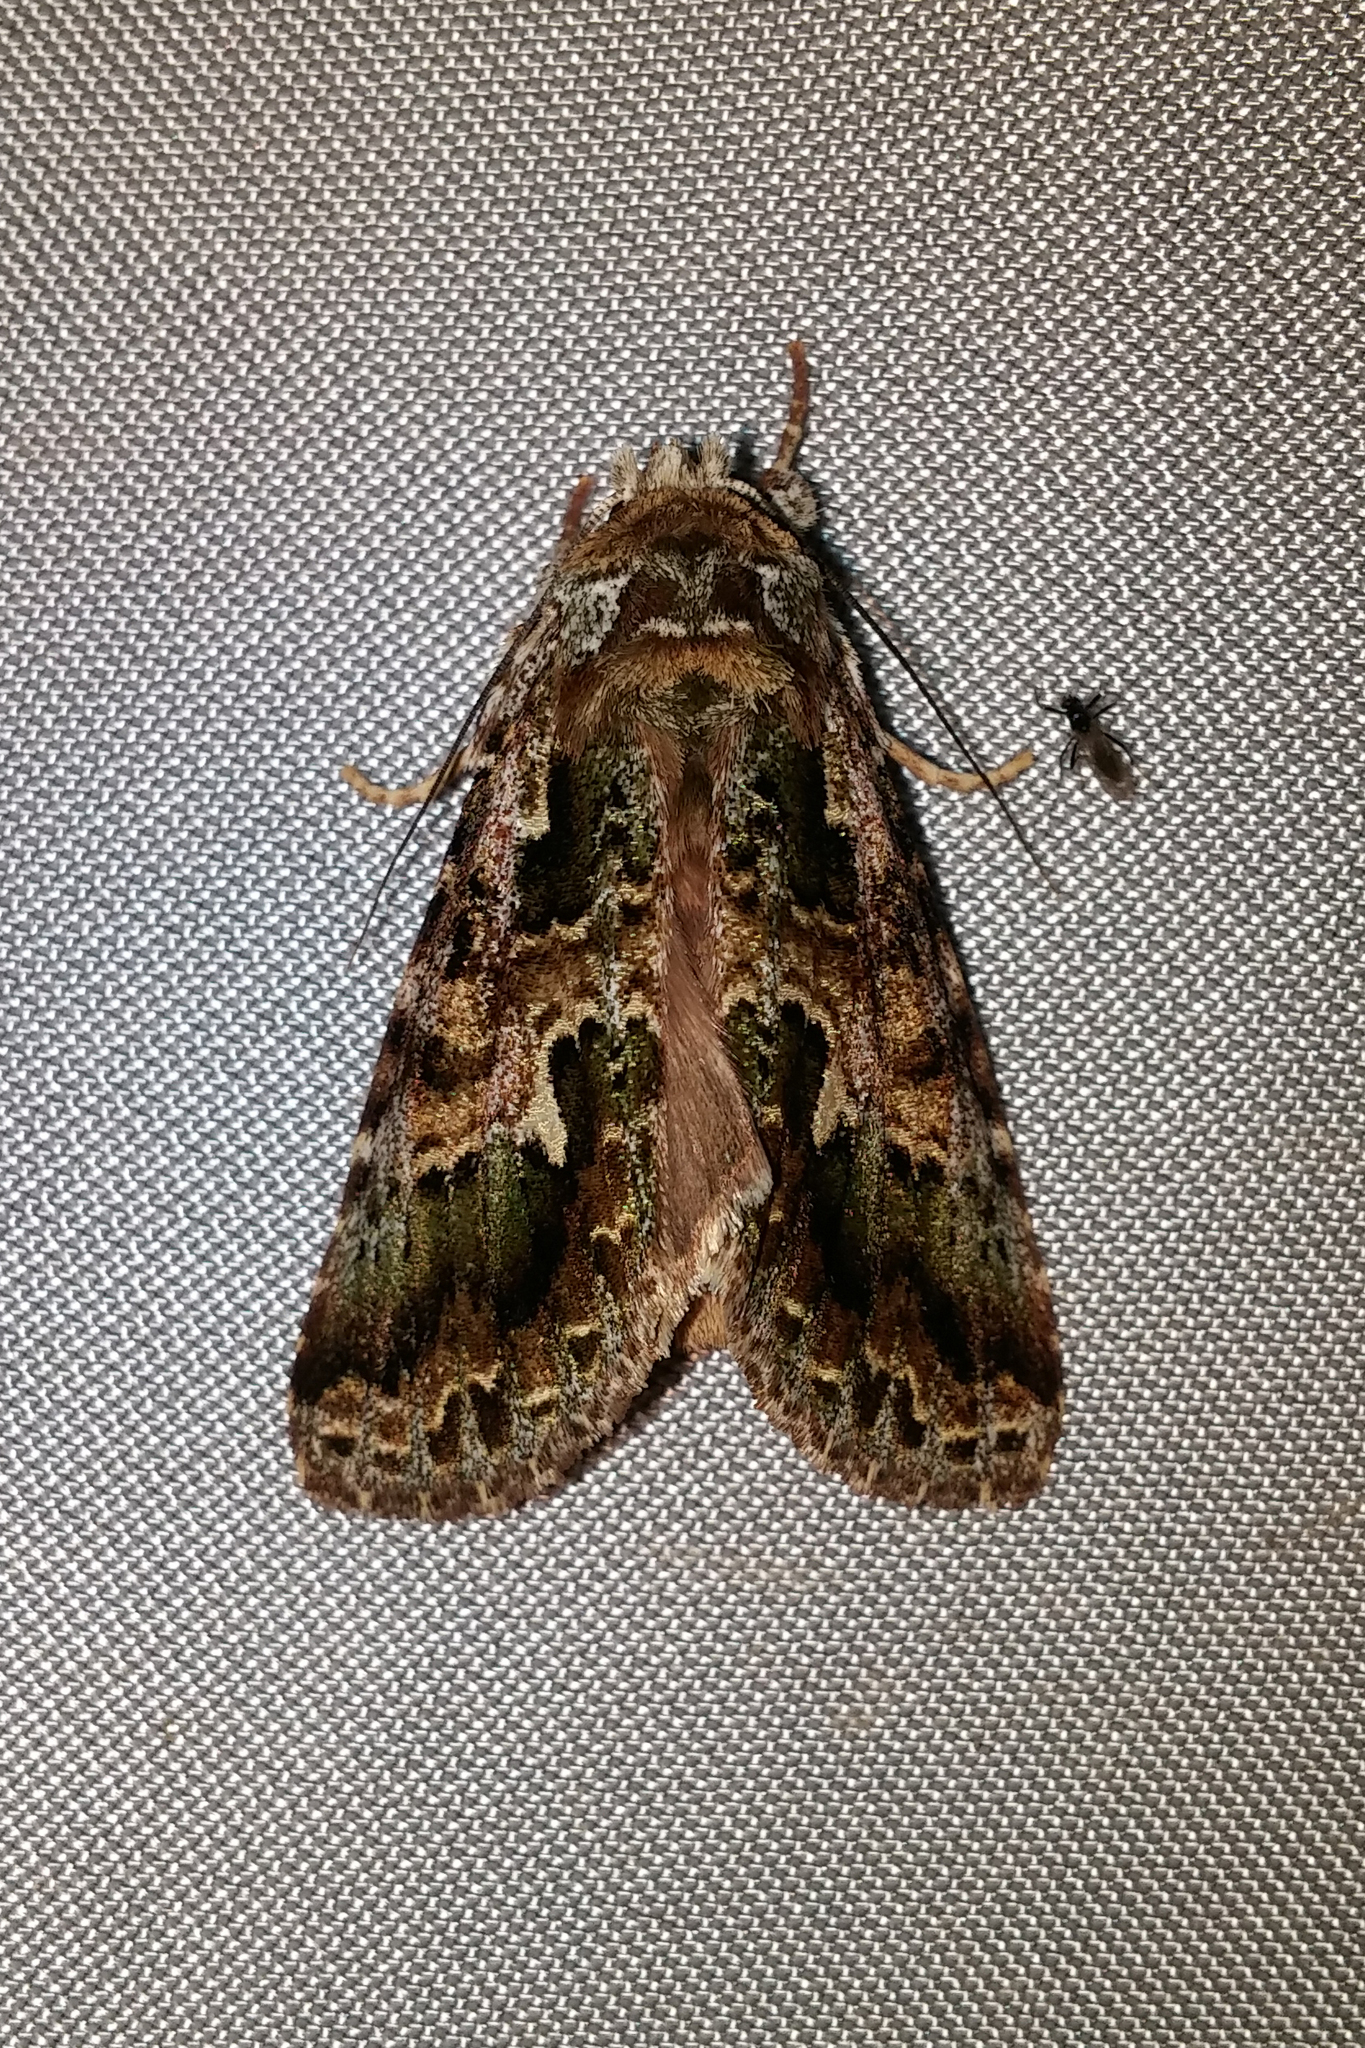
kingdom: Animalia
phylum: Arthropoda
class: Insecta
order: Lepidoptera
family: Notodontidae
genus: Cascera
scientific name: Cascera bella
